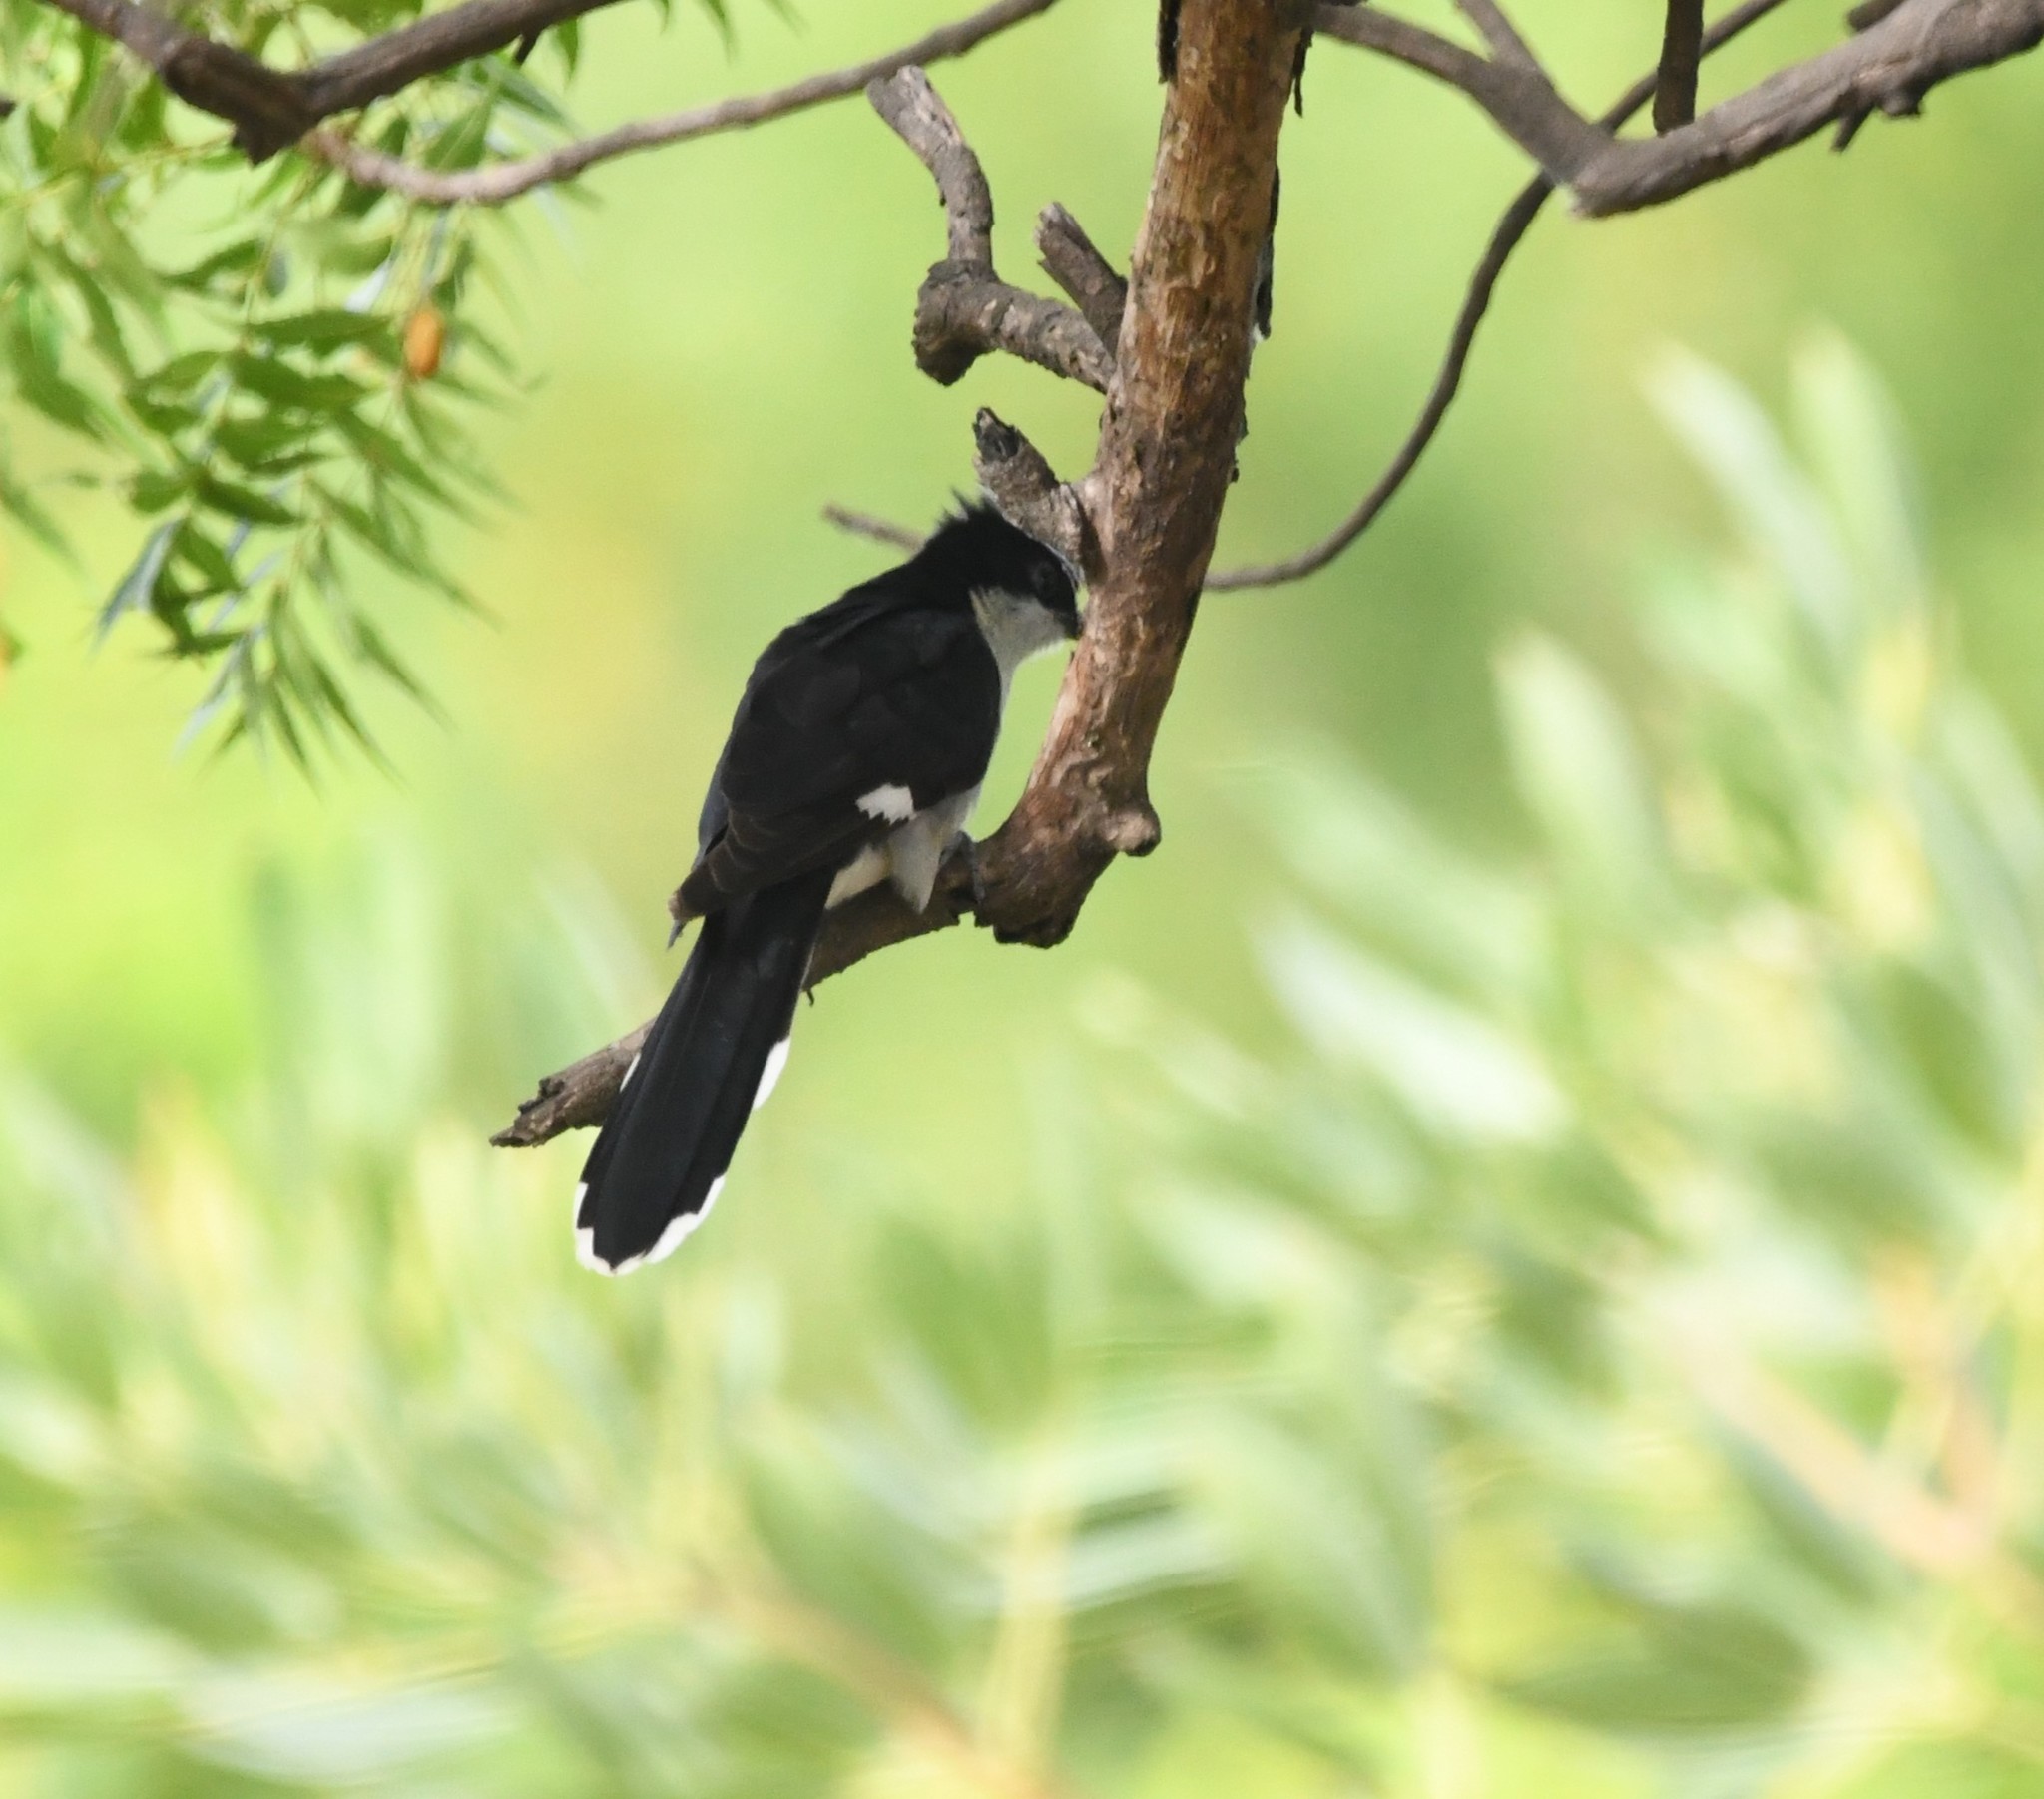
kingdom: Animalia
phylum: Chordata
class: Aves
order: Cuculiformes
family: Cuculidae
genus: Clamator
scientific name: Clamator jacobinus
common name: Jacobin cuckoo
